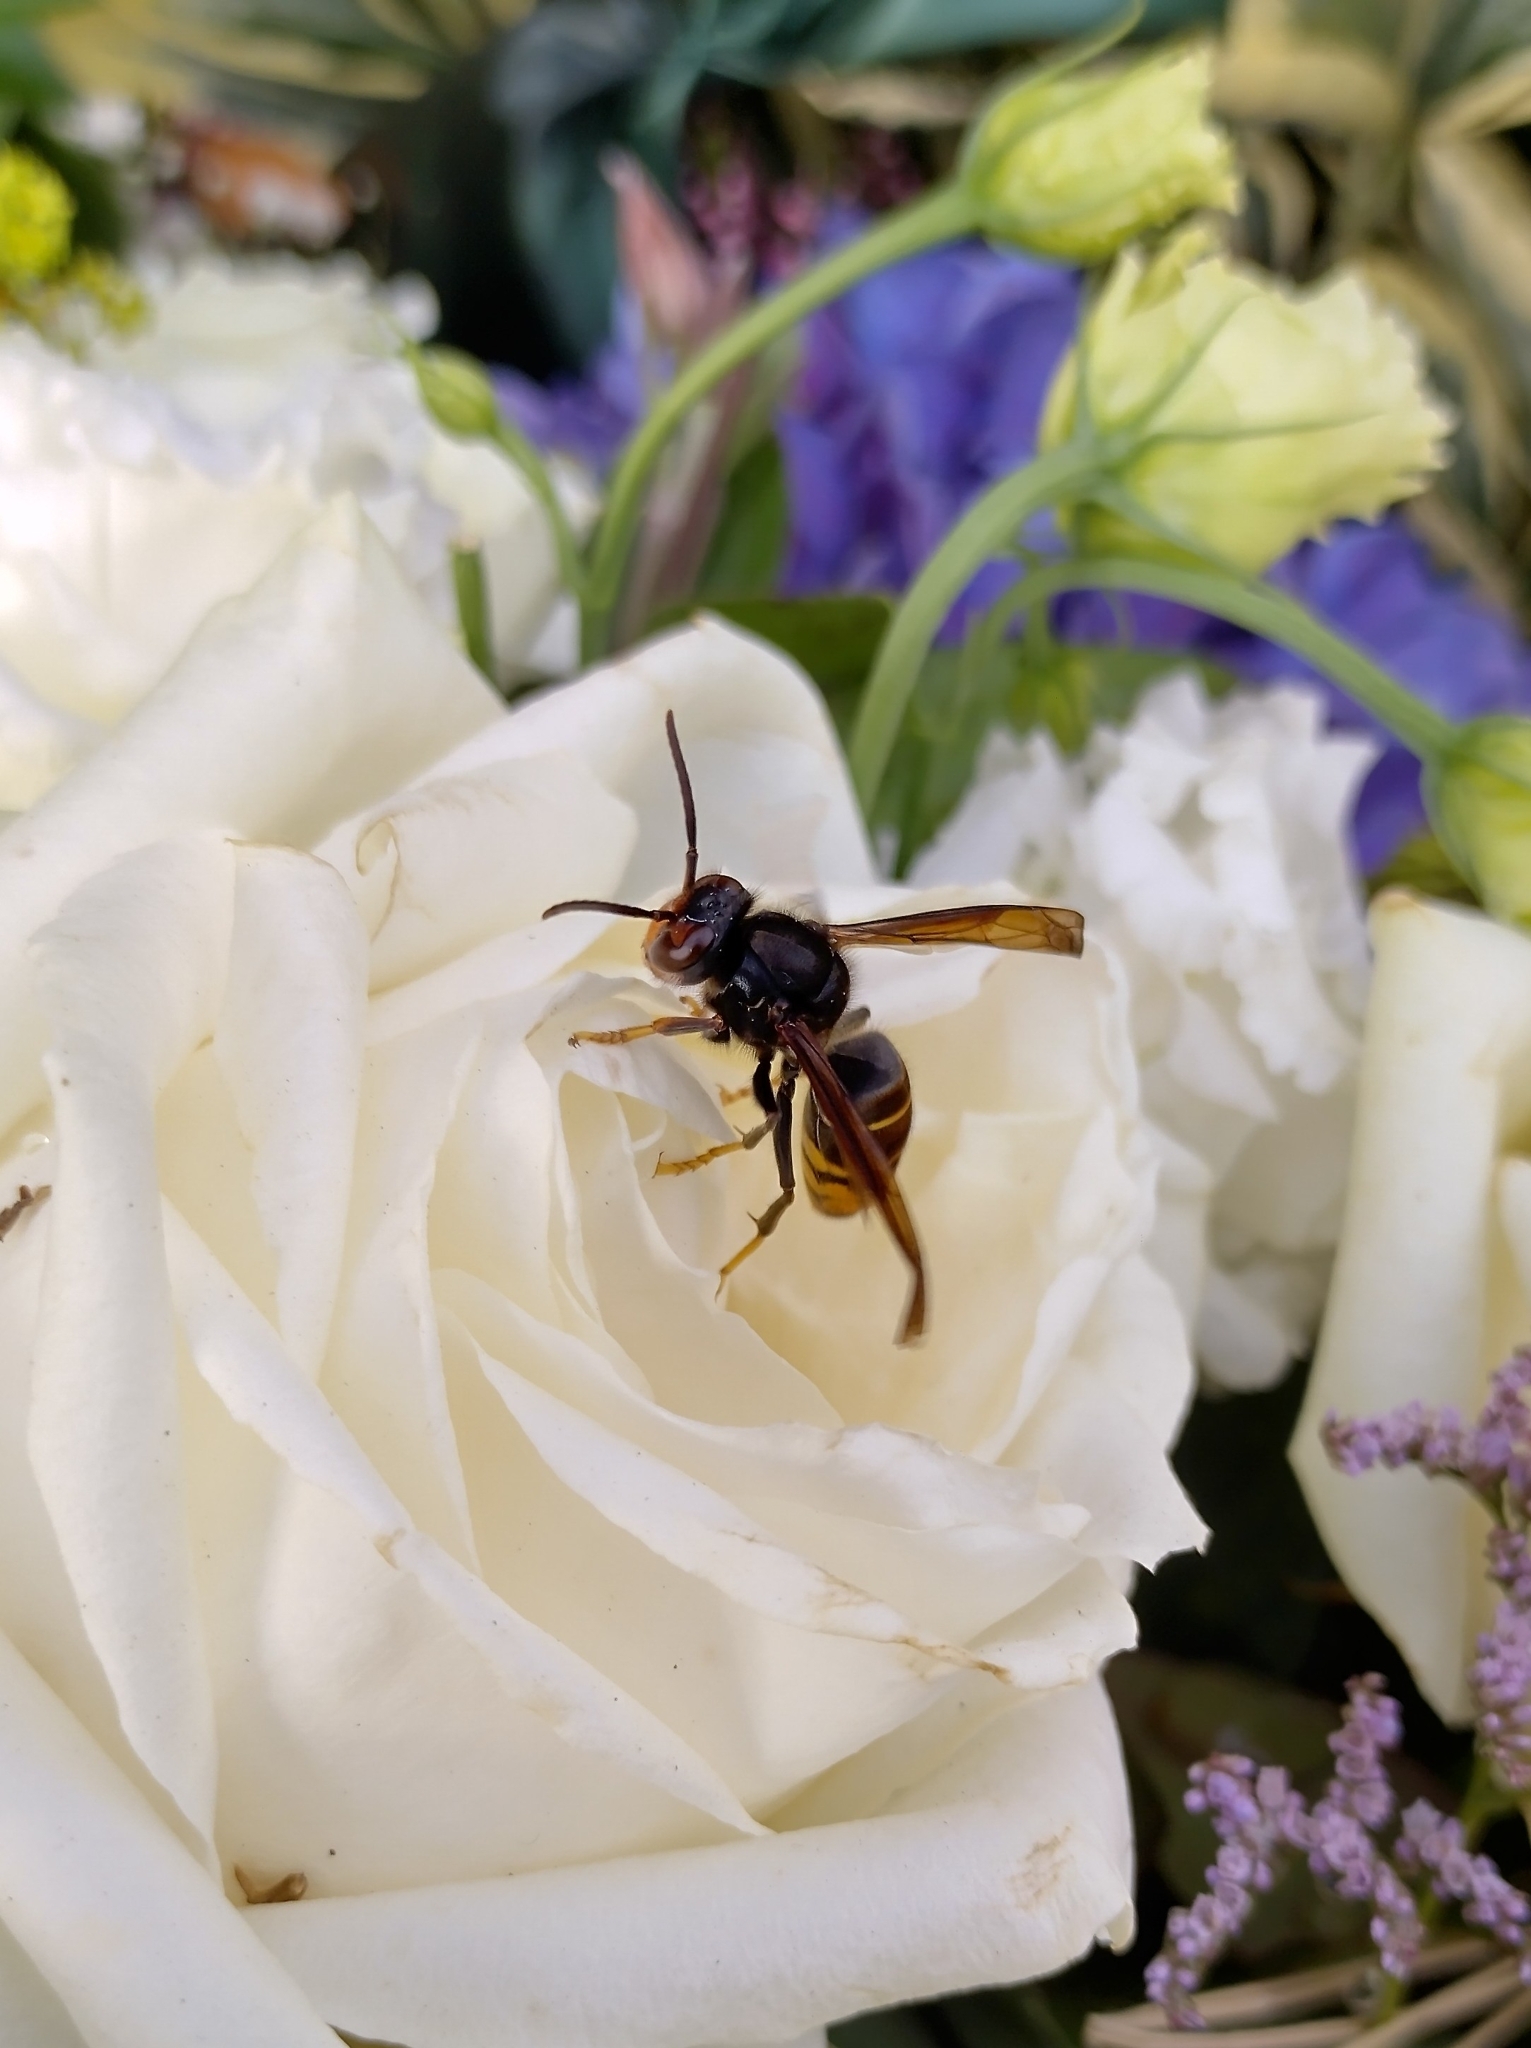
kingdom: Animalia
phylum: Arthropoda
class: Insecta
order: Hymenoptera
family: Vespidae
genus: Vespa
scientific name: Vespa velutina
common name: Asian hornet
